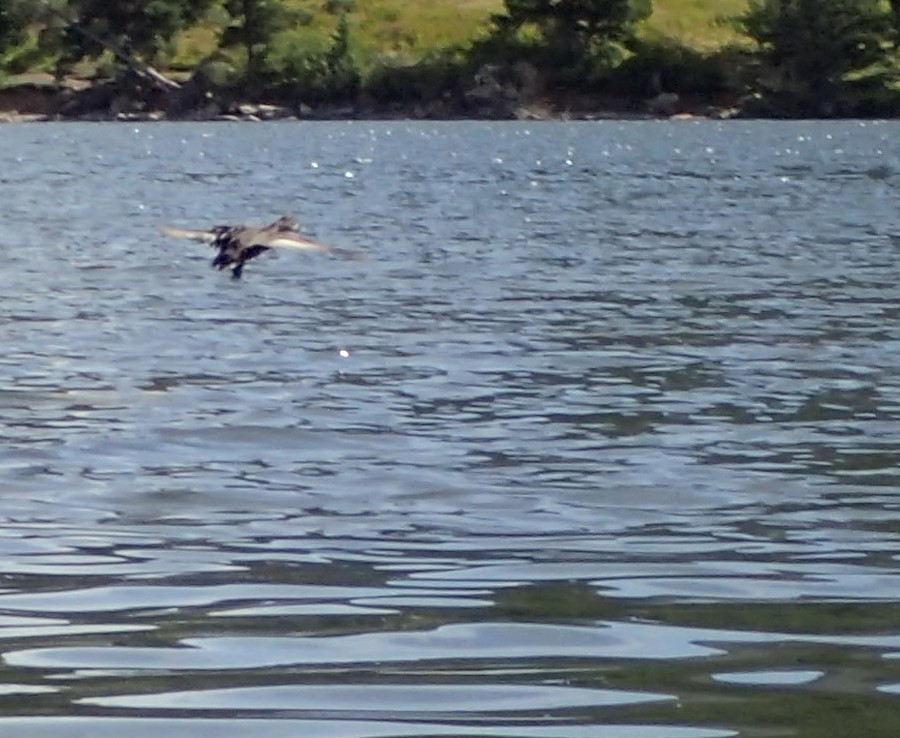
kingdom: Animalia
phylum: Chordata
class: Aves
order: Anseriformes
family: Anatidae
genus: Aythya
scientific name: Aythya
